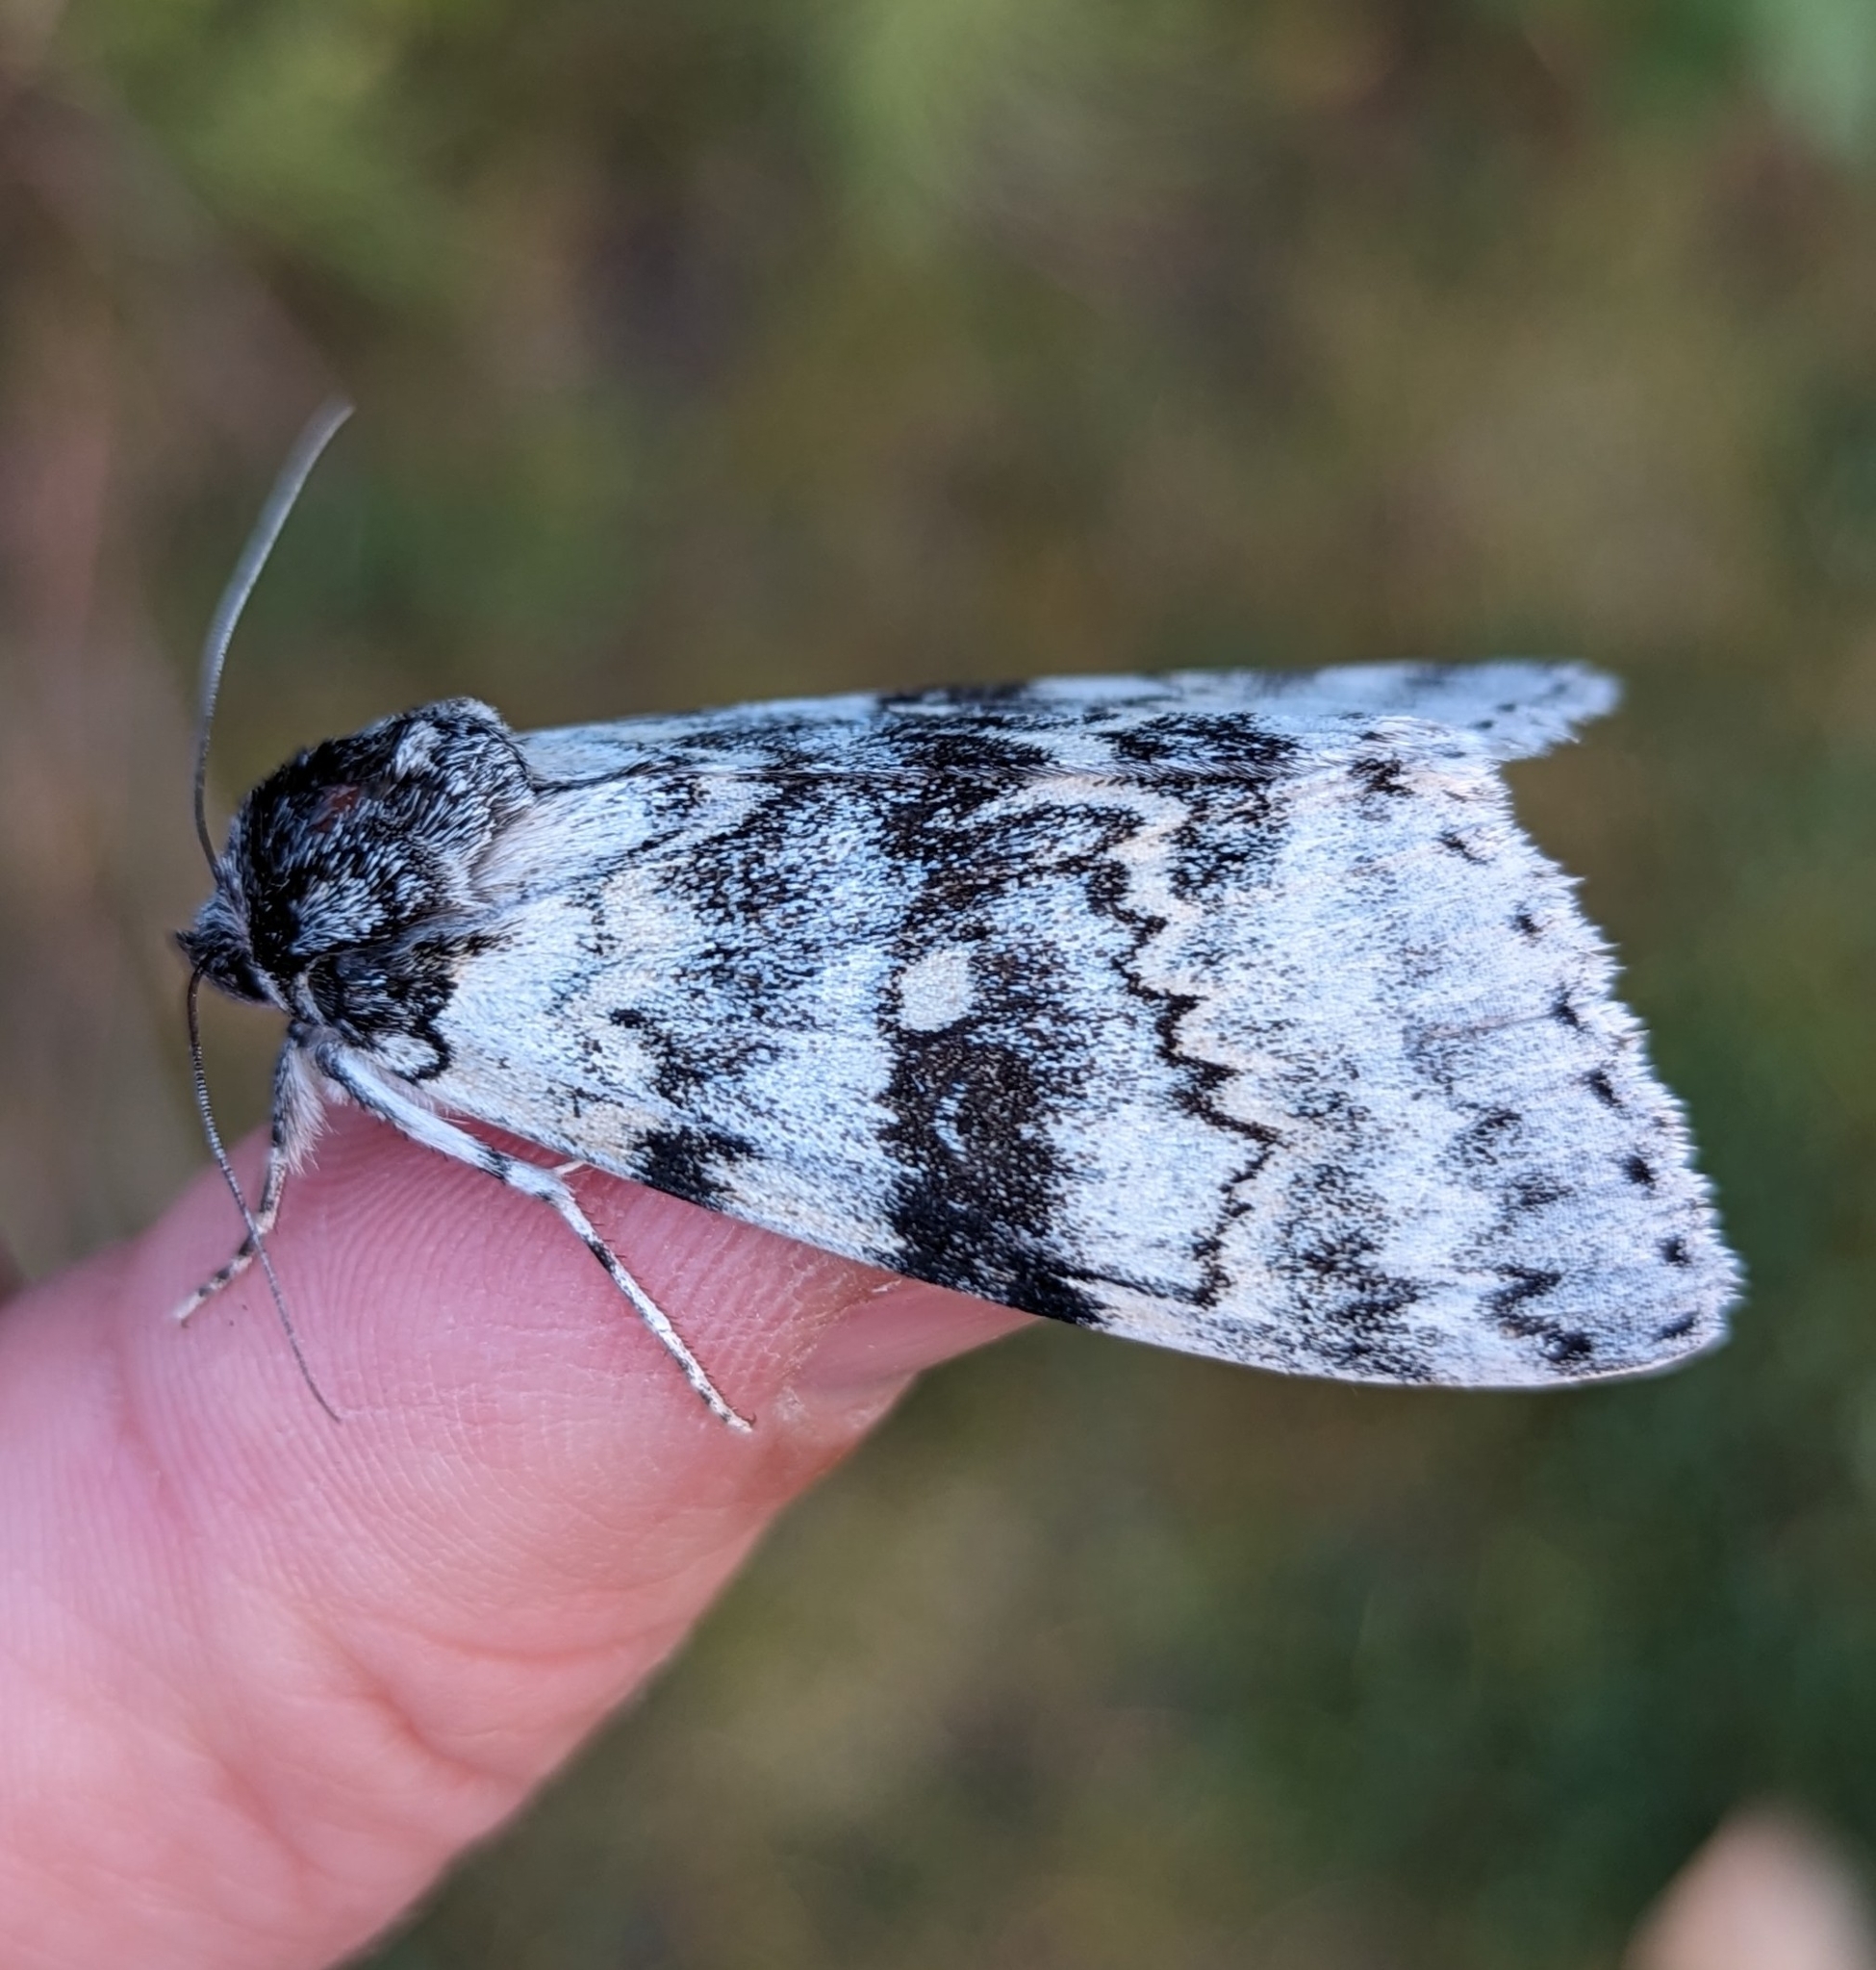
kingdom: Animalia
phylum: Arthropoda
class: Insecta
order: Lepidoptera
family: Erebidae
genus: Catocala
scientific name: Catocala relicta
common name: White underwing
